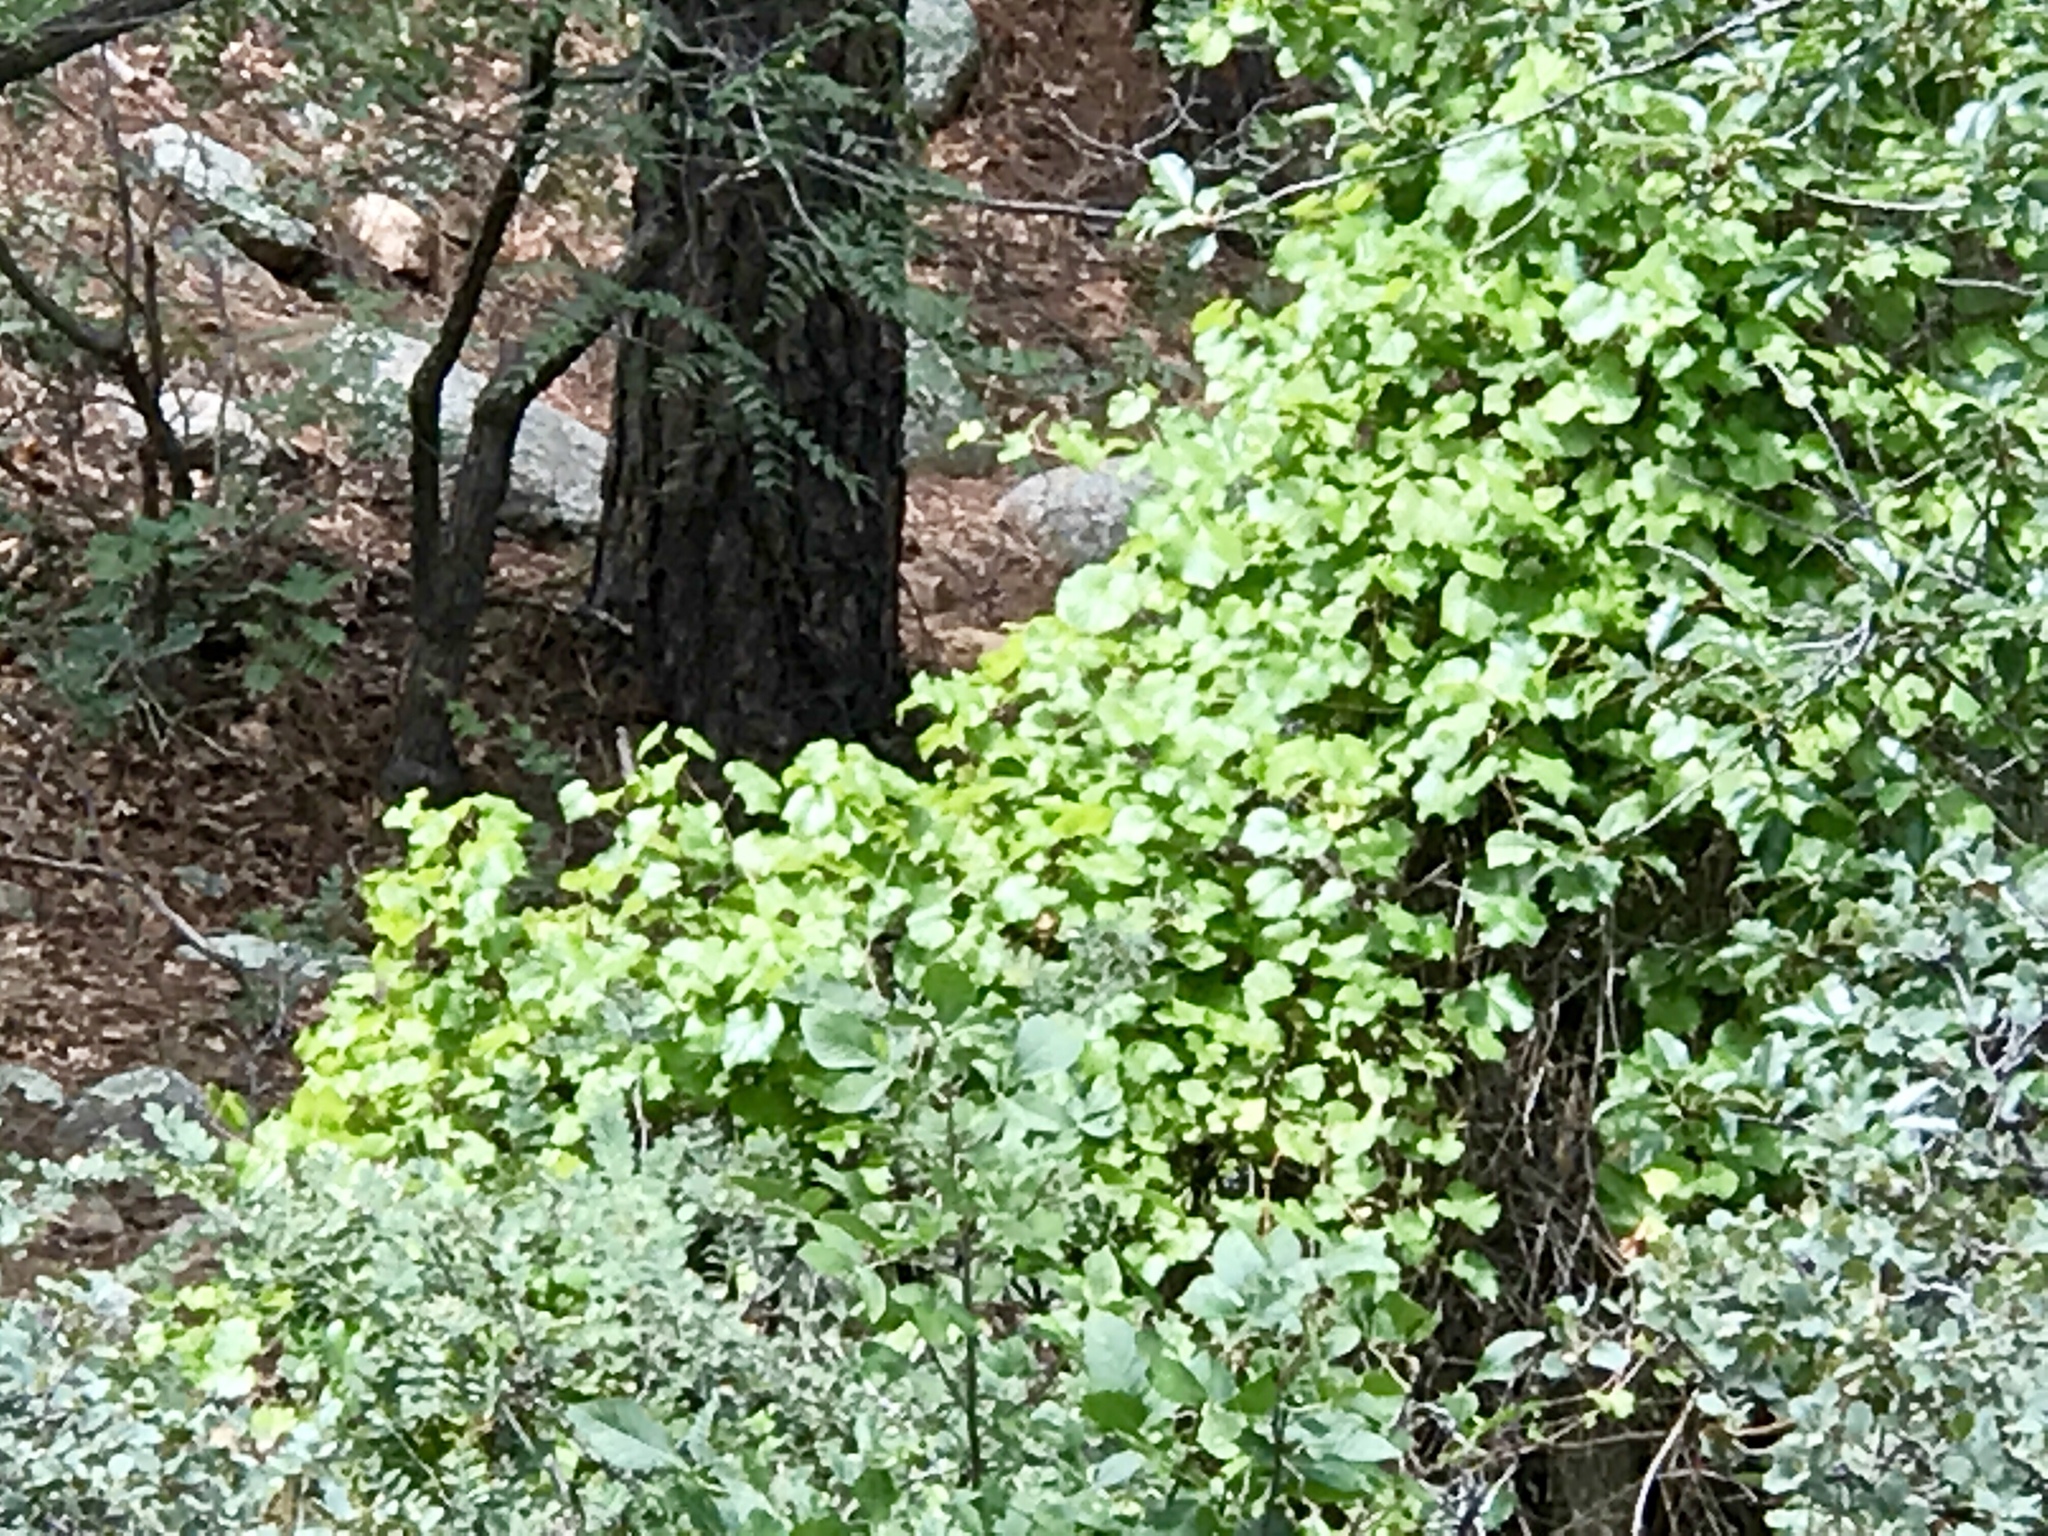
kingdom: Plantae
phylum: Tracheophyta
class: Magnoliopsida
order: Vitales
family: Vitaceae
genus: Vitis
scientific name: Vitis arizonica
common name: Canyon grape
